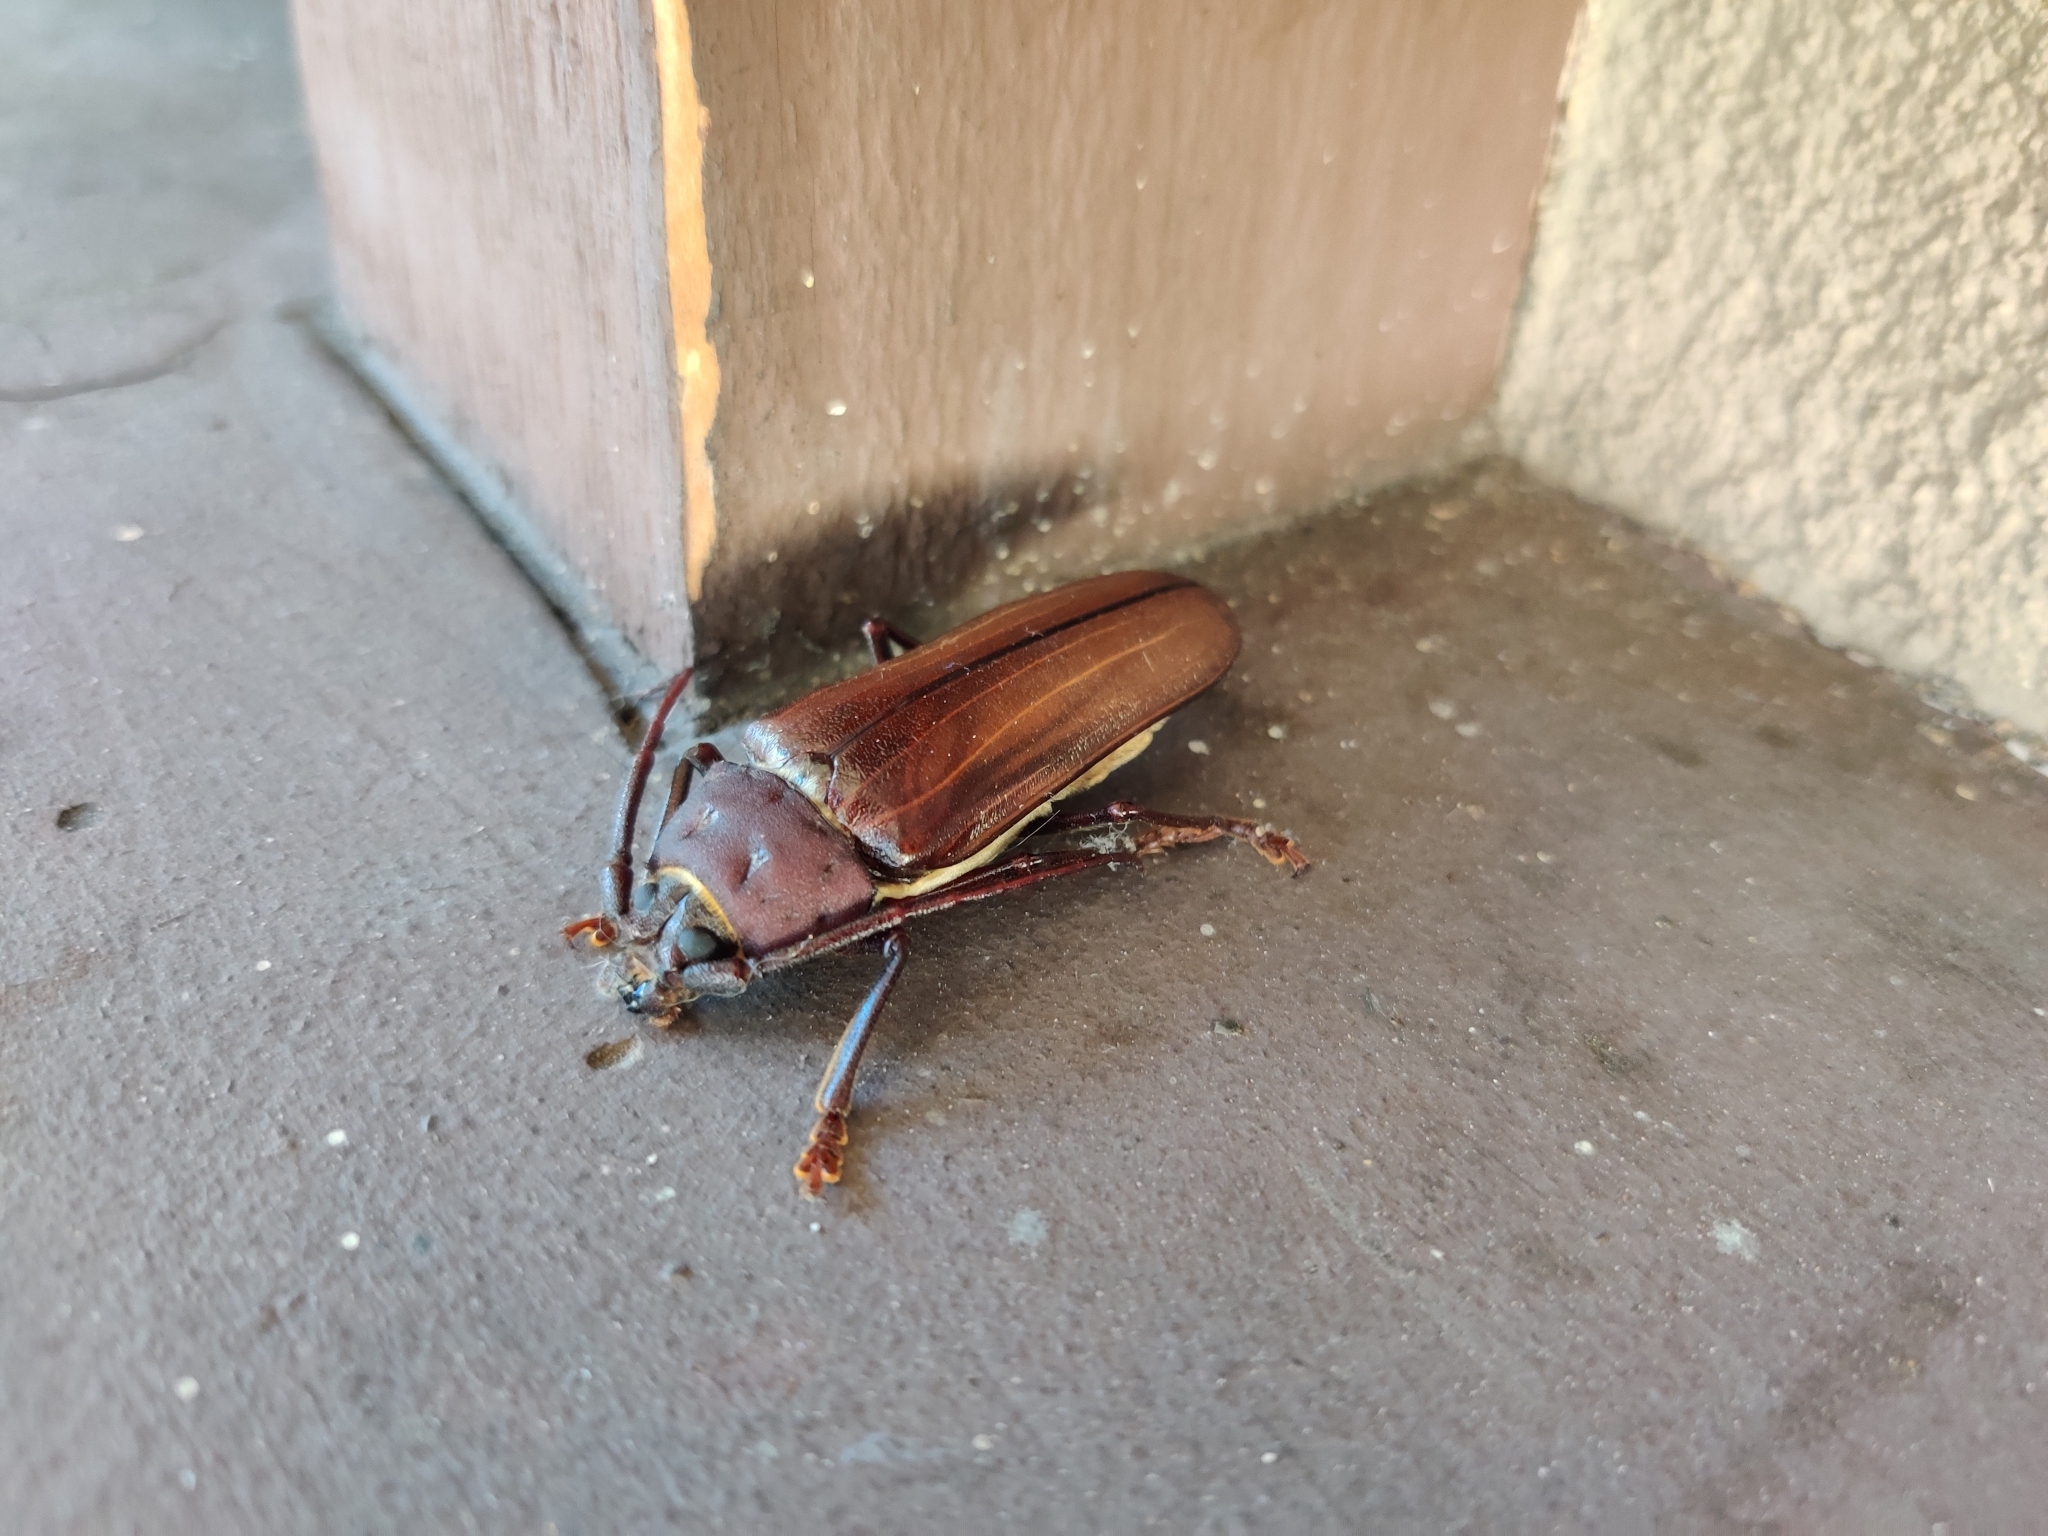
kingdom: Animalia
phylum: Arthropoda
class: Insecta
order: Coleoptera
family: Cerambycidae
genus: Trichocnemis
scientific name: Trichocnemis spiculatus
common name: Long-horned beetle
